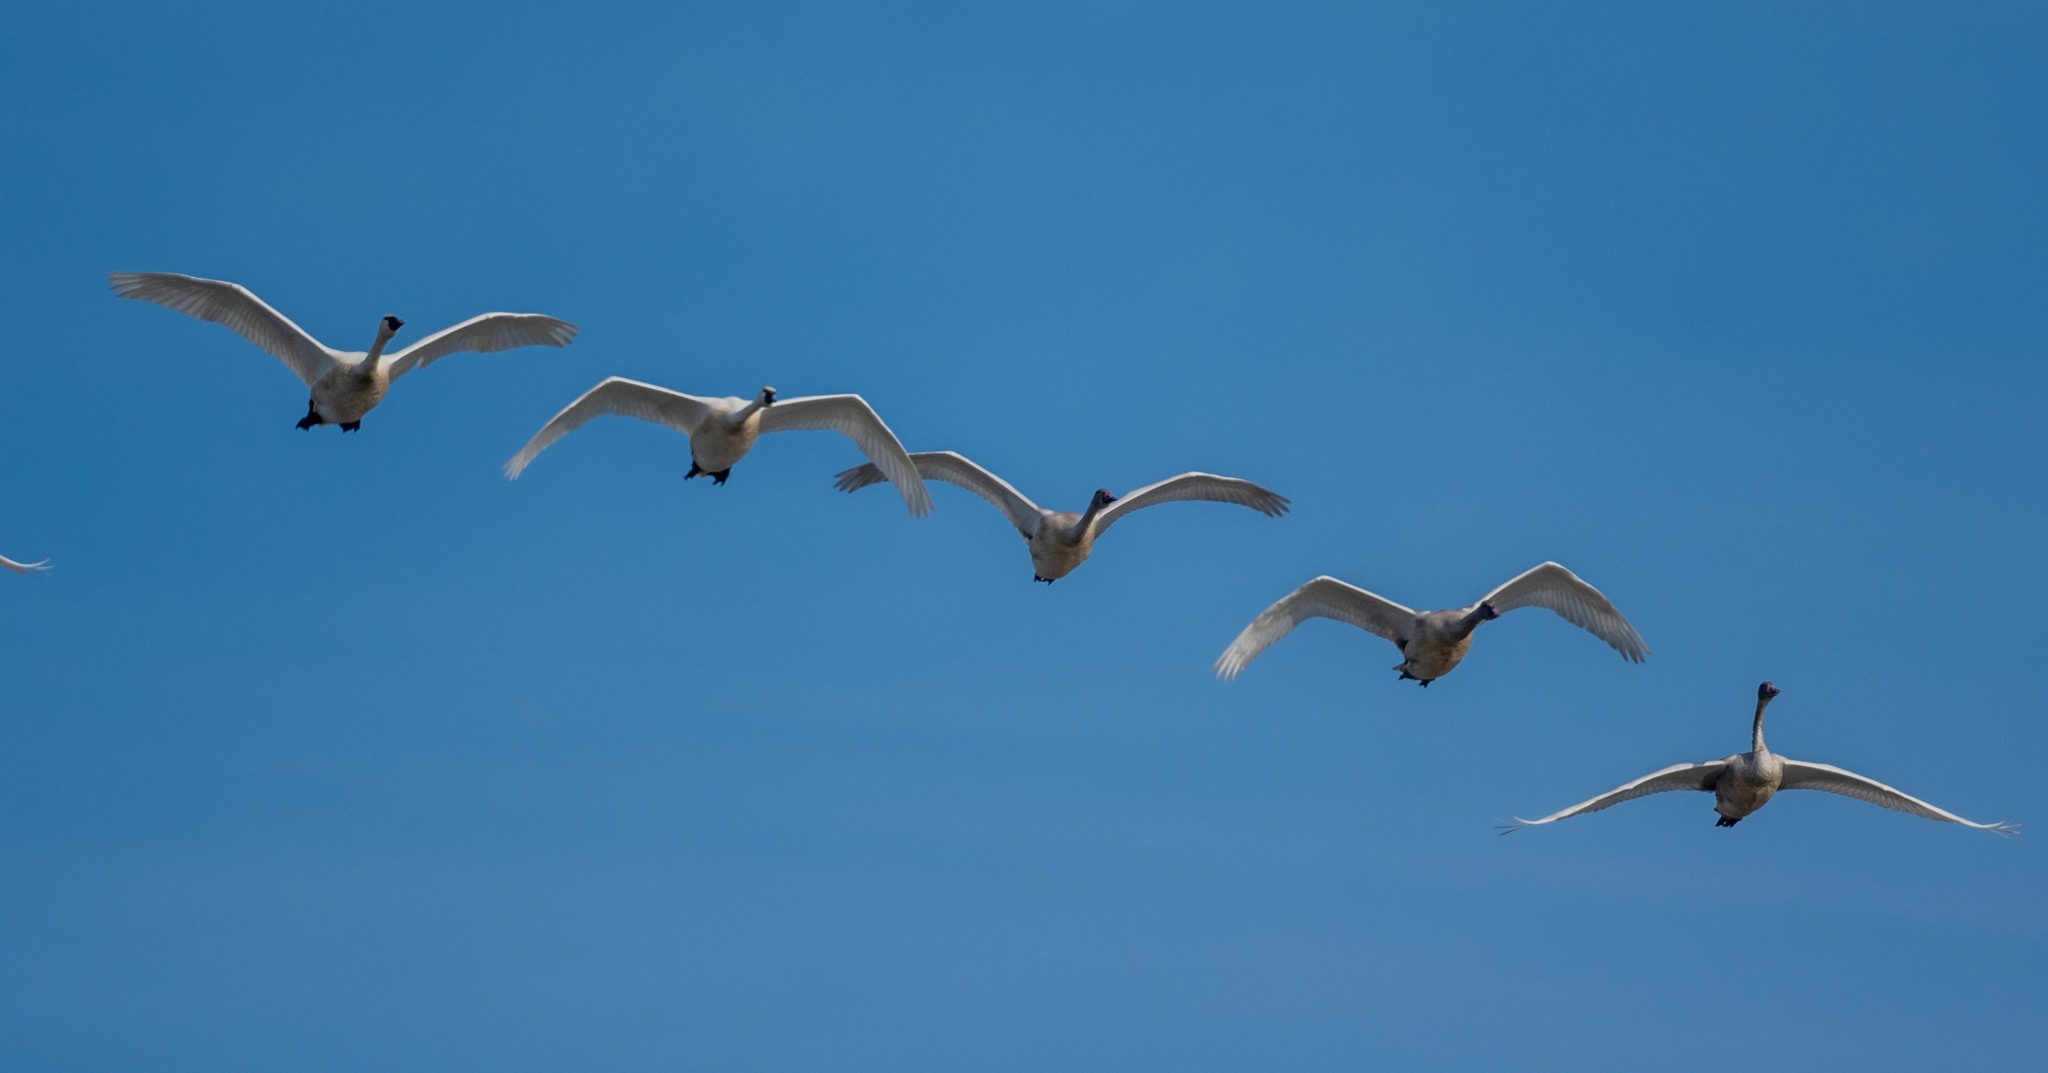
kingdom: Animalia
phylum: Chordata
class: Aves
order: Anseriformes
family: Anatidae
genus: Cygnus
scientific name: Cygnus columbianus
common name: Tundra swan
